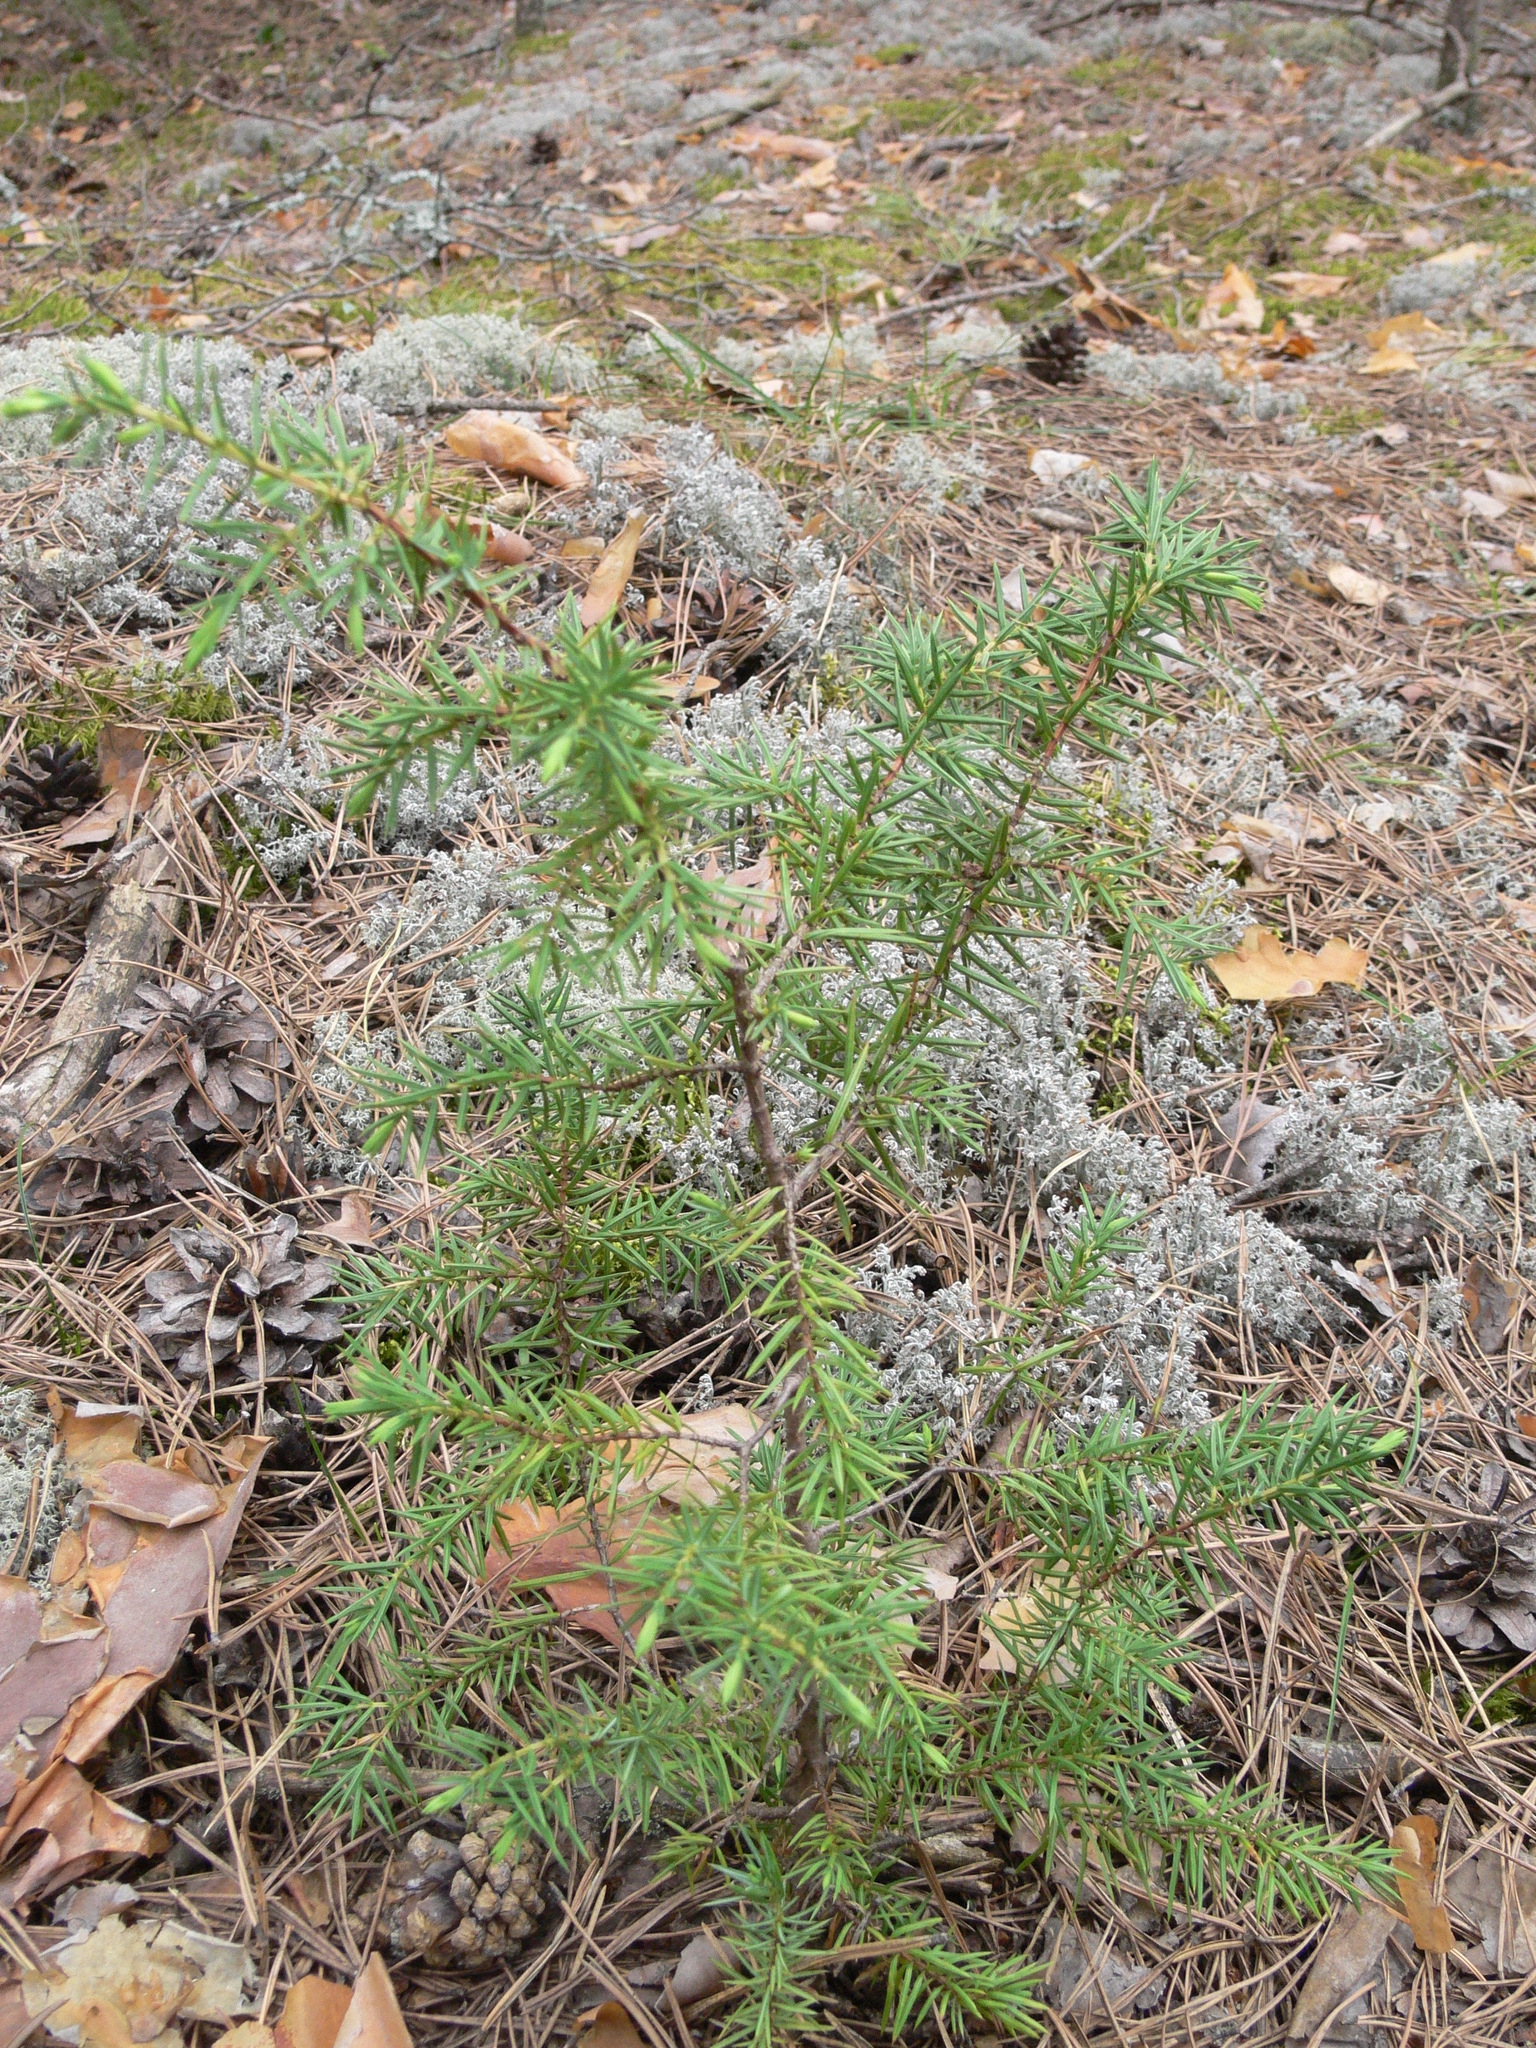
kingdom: Plantae
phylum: Tracheophyta
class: Pinopsida
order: Pinales
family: Cupressaceae
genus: Juniperus
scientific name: Juniperus communis
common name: Common juniper
